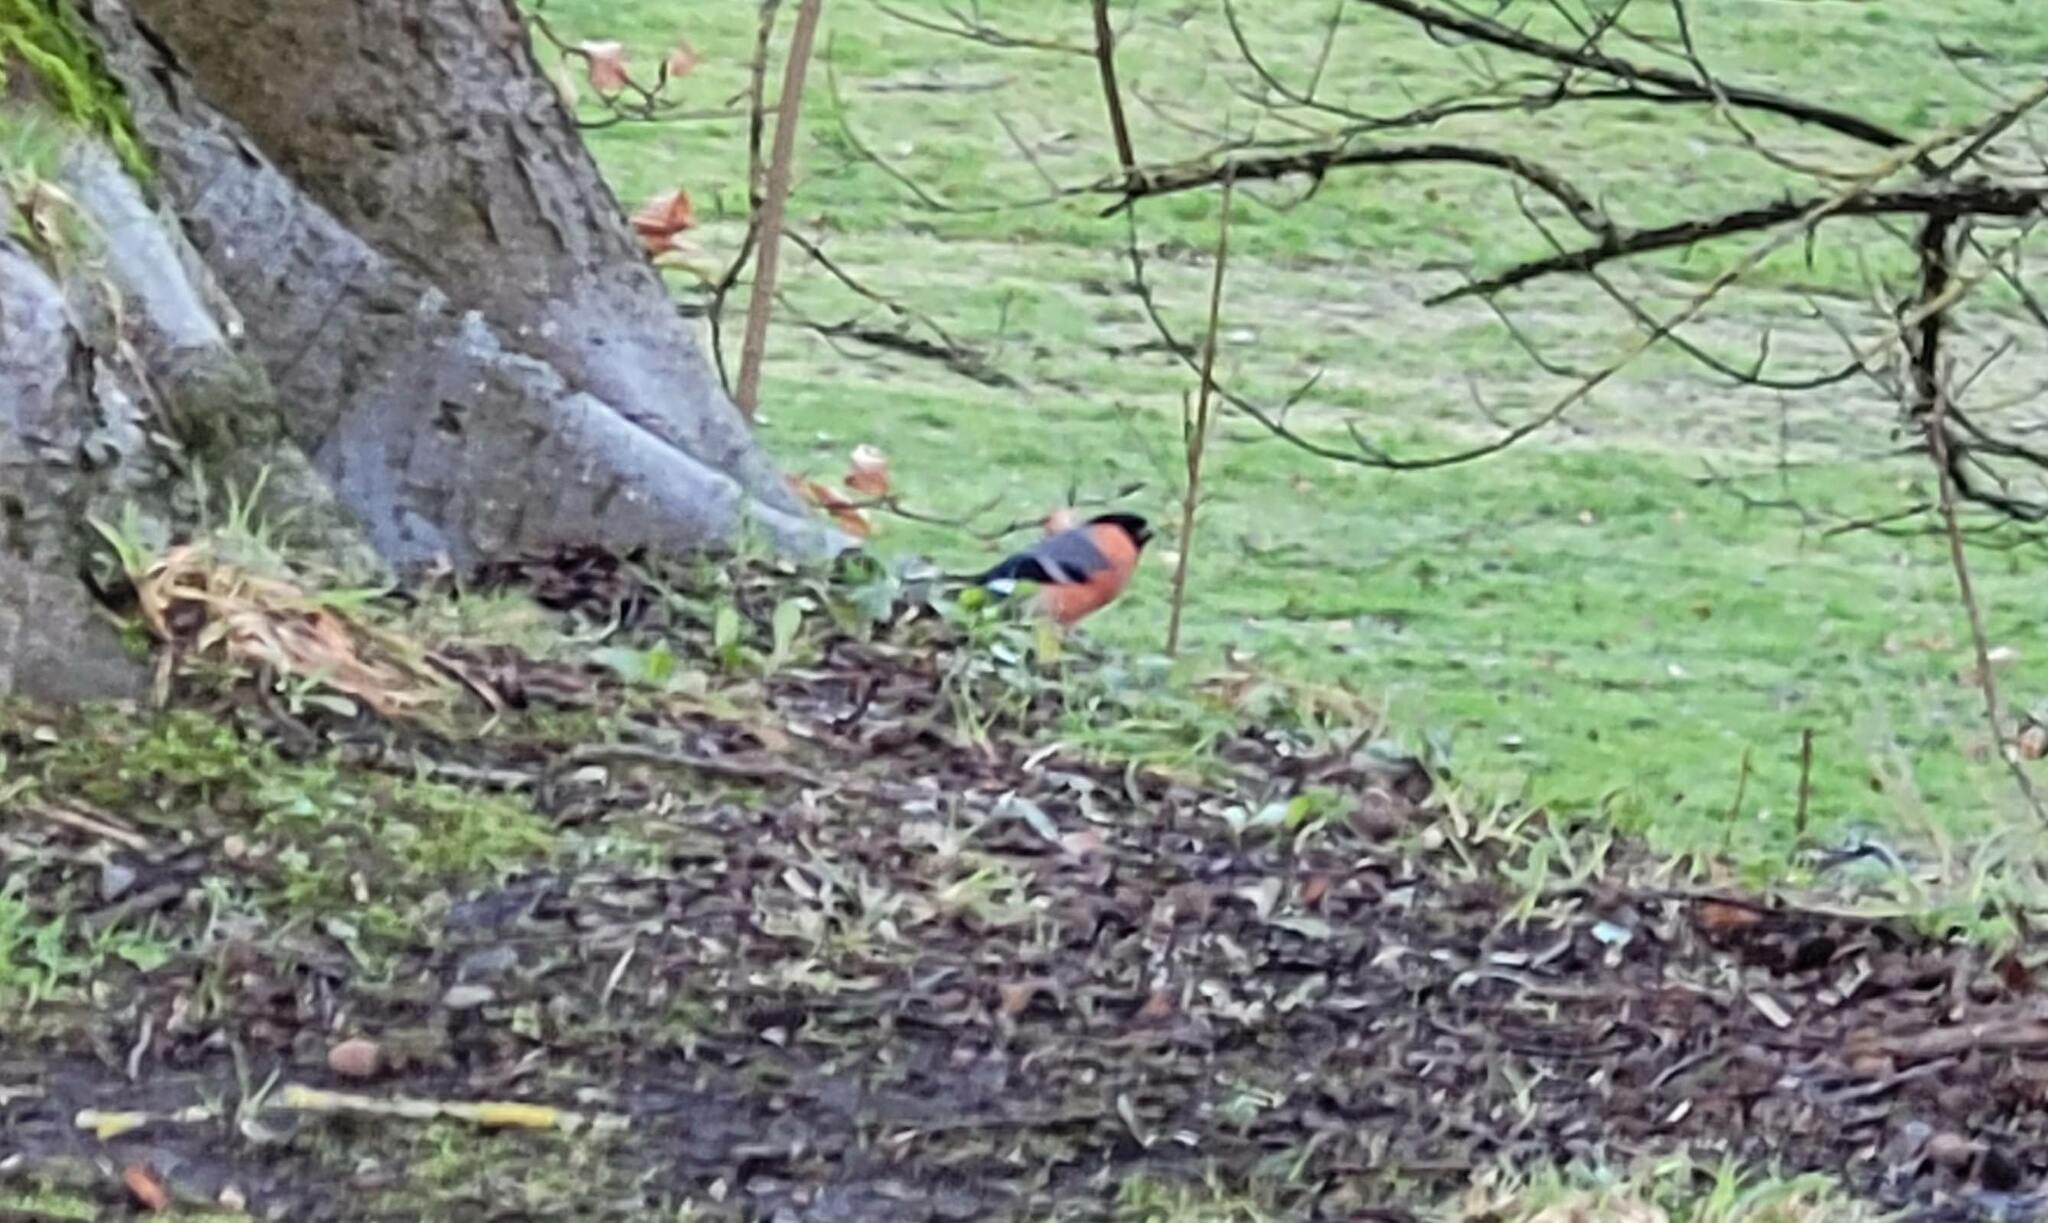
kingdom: Animalia
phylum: Chordata
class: Aves
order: Passeriformes
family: Fringillidae
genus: Pyrrhula
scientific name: Pyrrhula pyrrhula
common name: Eurasian bullfinch
